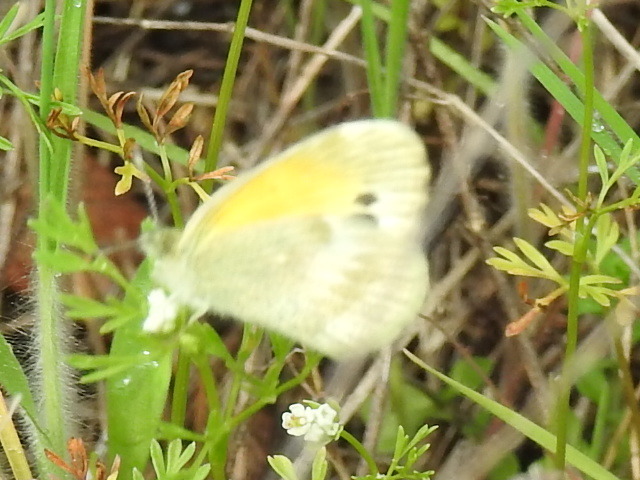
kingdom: Animalia
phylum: Arthropoda
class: Insecta
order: Lepidoptera
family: Pieridae
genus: Nathalis
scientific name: Nathalis iole
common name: Dainty sulphur
